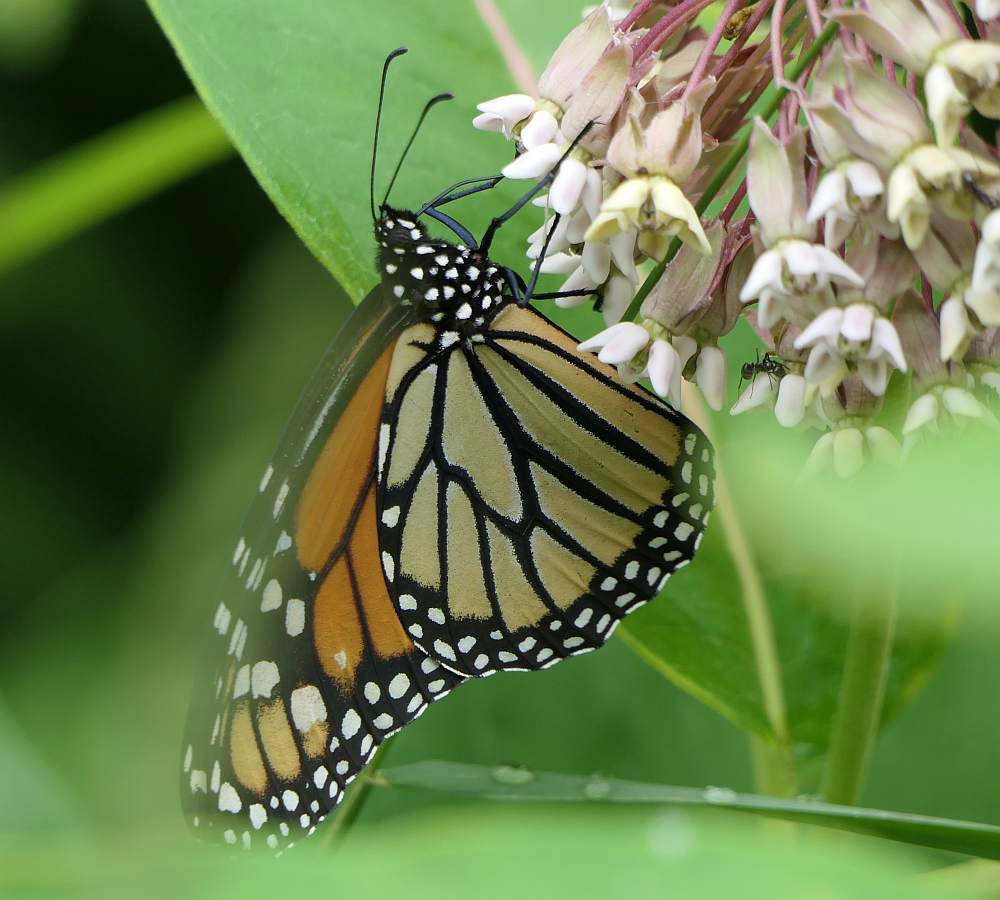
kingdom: Animalia
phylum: Arthropoda
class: Insecta
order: Lepidoptera
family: Nymphalidae
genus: Danaus
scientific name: Danaus plexippus
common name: Monarch
